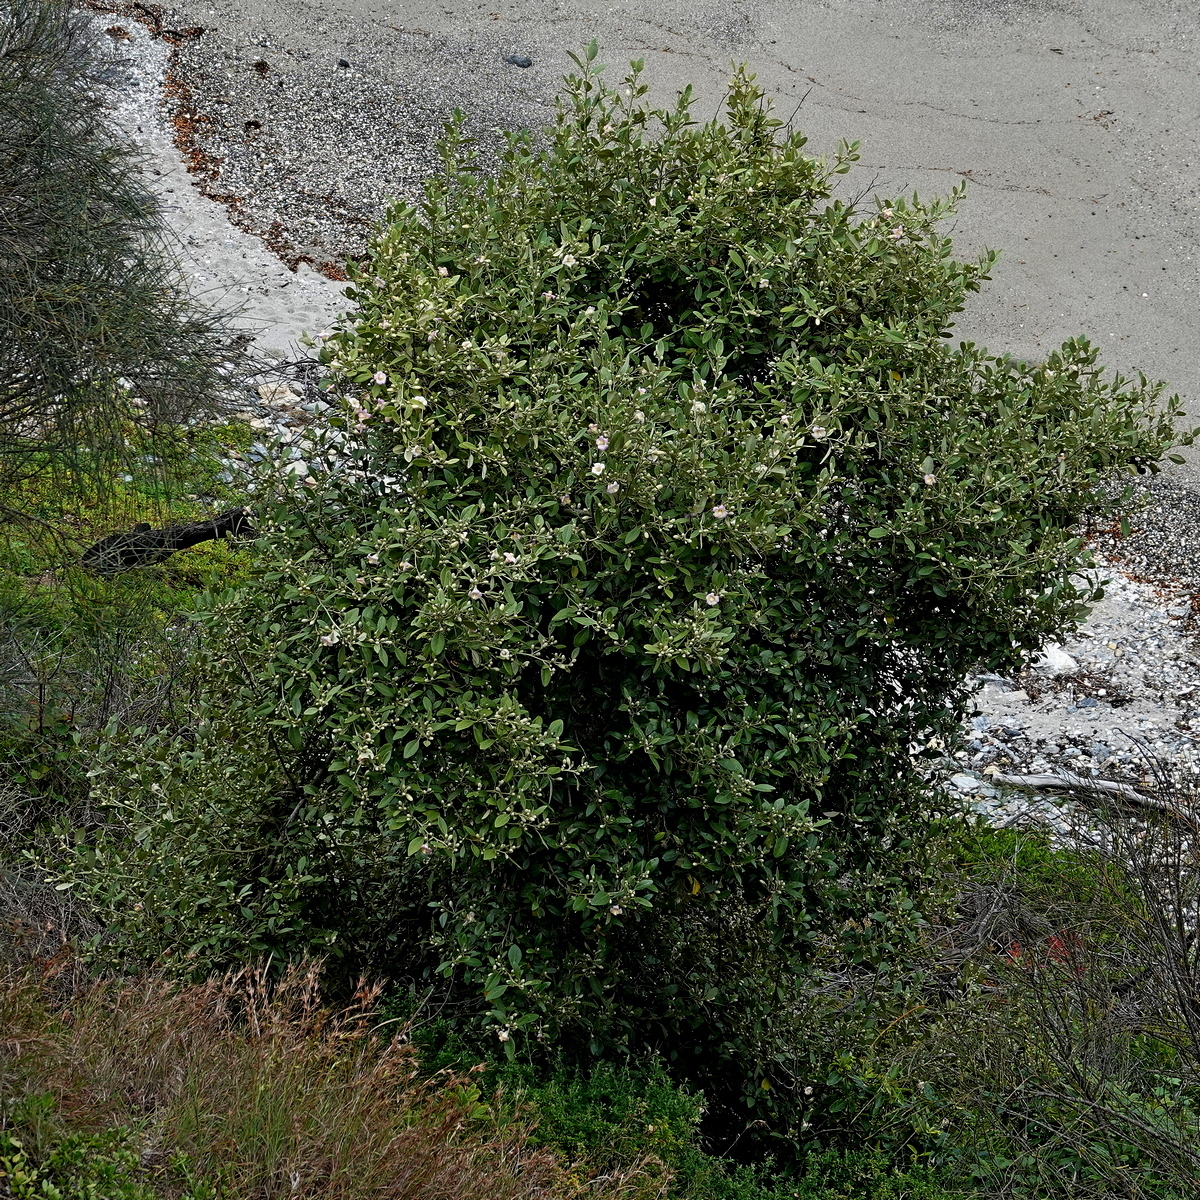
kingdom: Plantae
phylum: Tracheophyta
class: Magnoliopsida
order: Malvales
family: Malvaceae
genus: Lagunaria
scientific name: Lagunaria patersonia
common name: Cow itch tree
